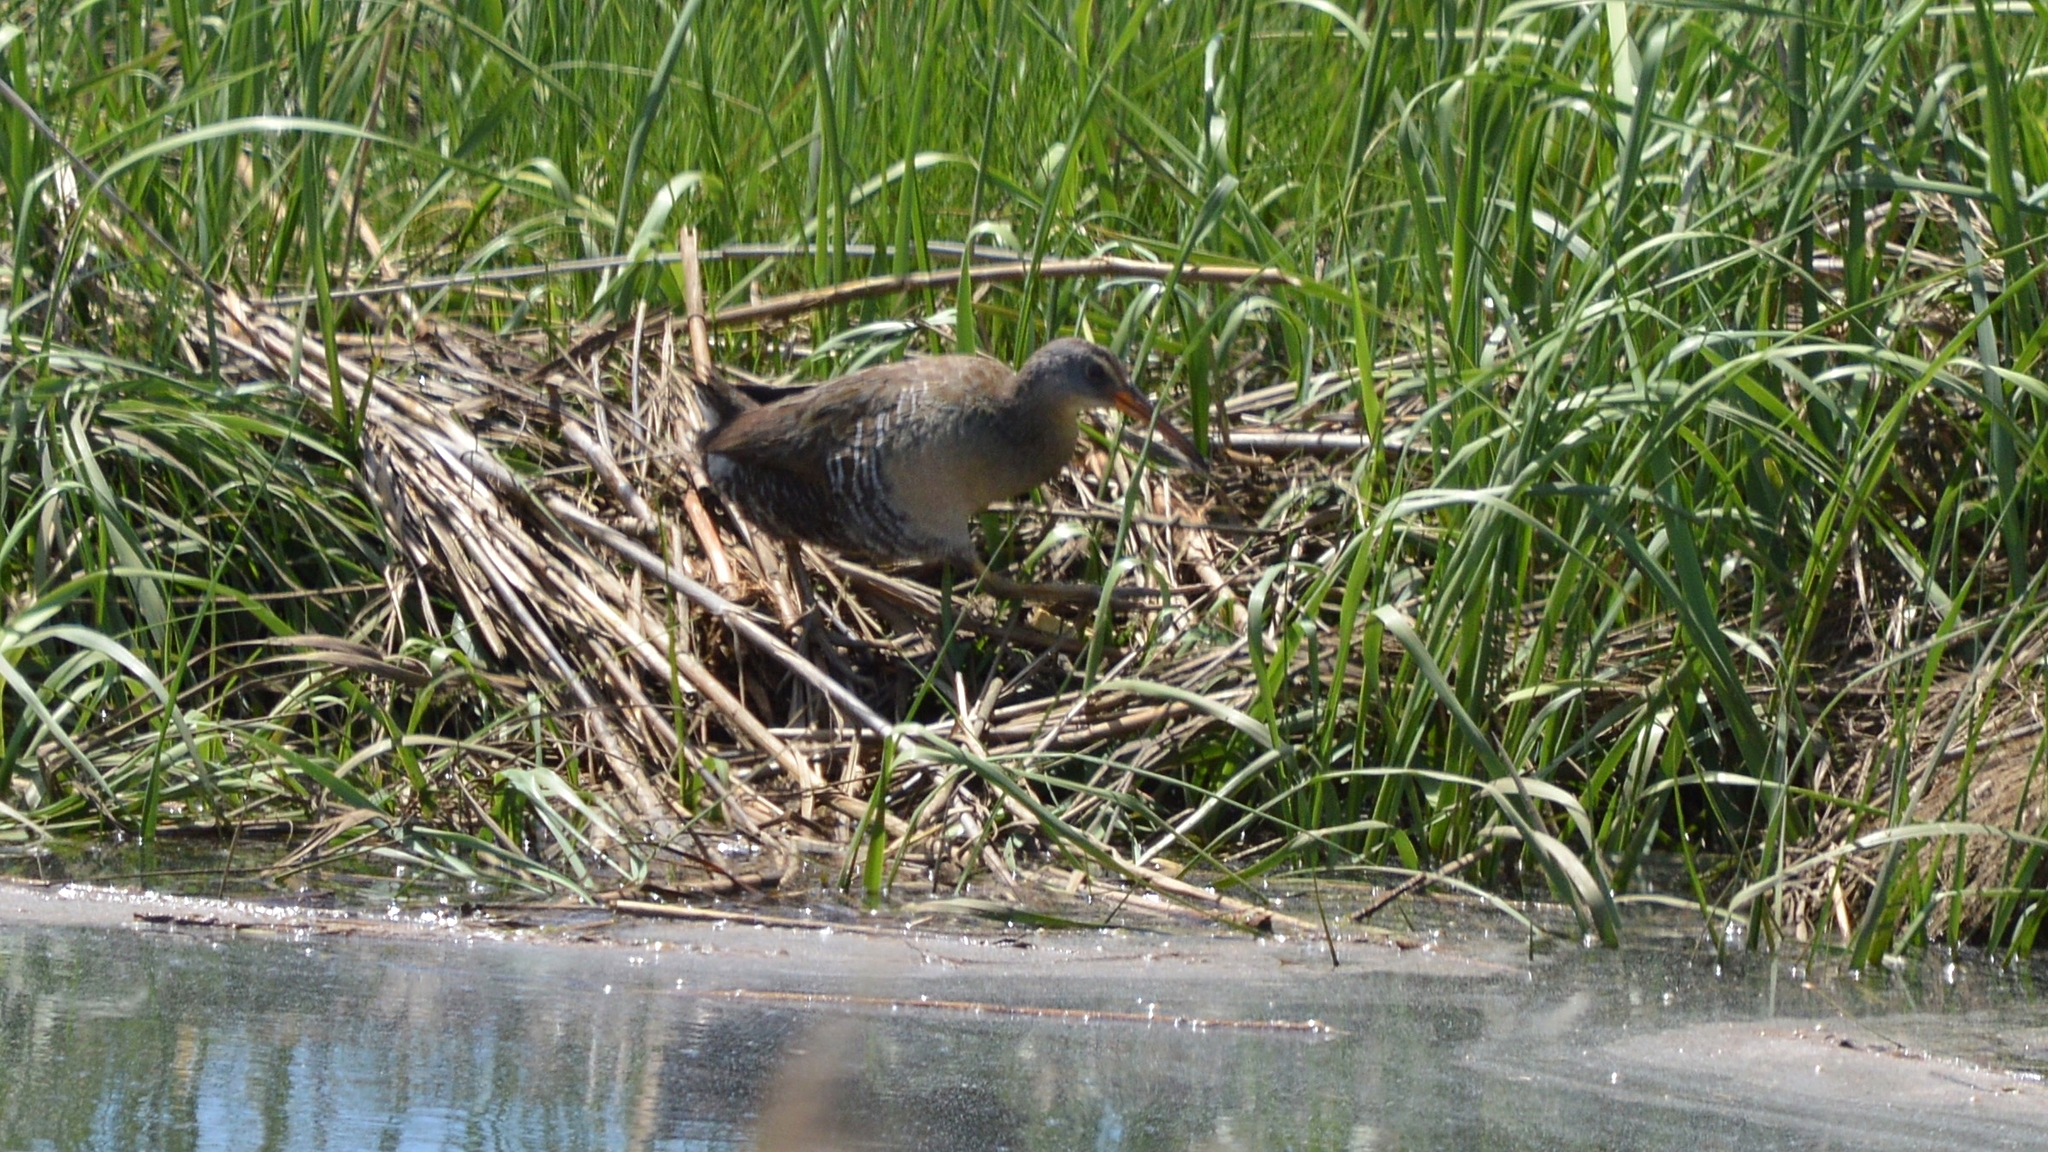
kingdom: Animalia
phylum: Chordata
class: Aves
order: Gruiformes
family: Rallidae
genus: Rallus
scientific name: Rallus crepitans
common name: Clapper rail
